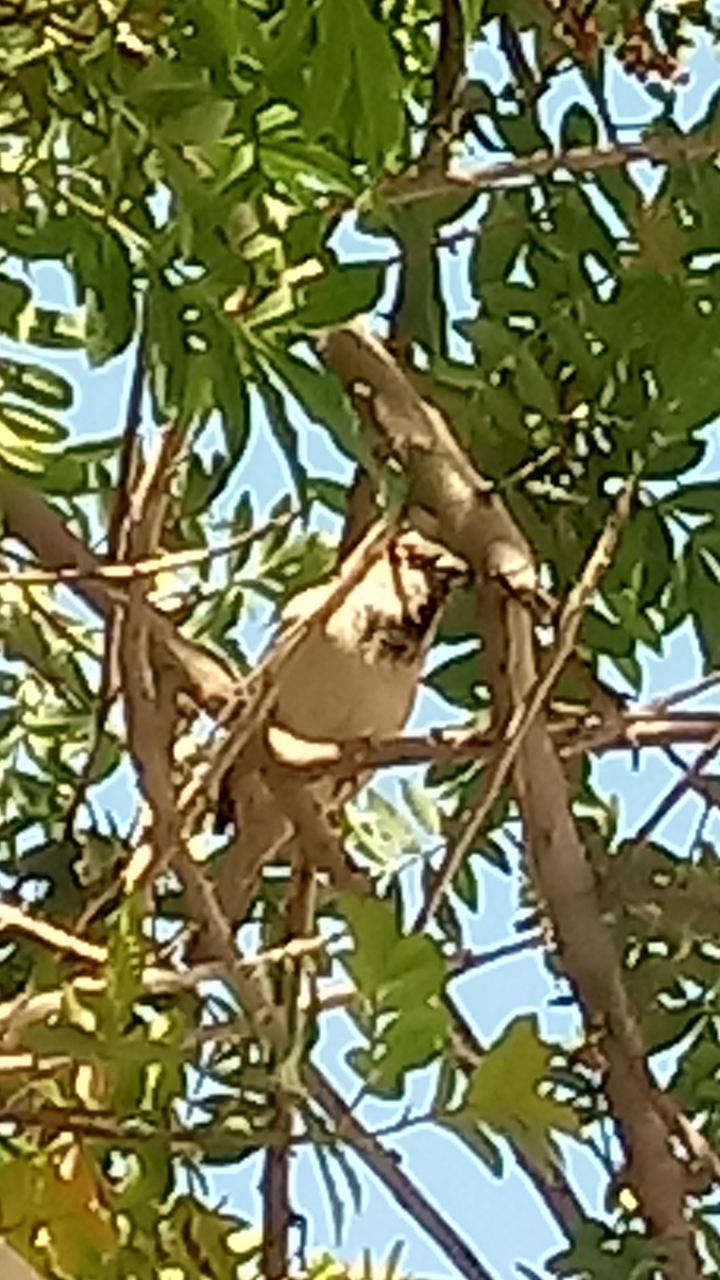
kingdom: Animalia
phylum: Chordata
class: Aves
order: Passeriformes
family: Passeridae
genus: Passer
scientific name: Passer domesticus
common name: House sparrow
